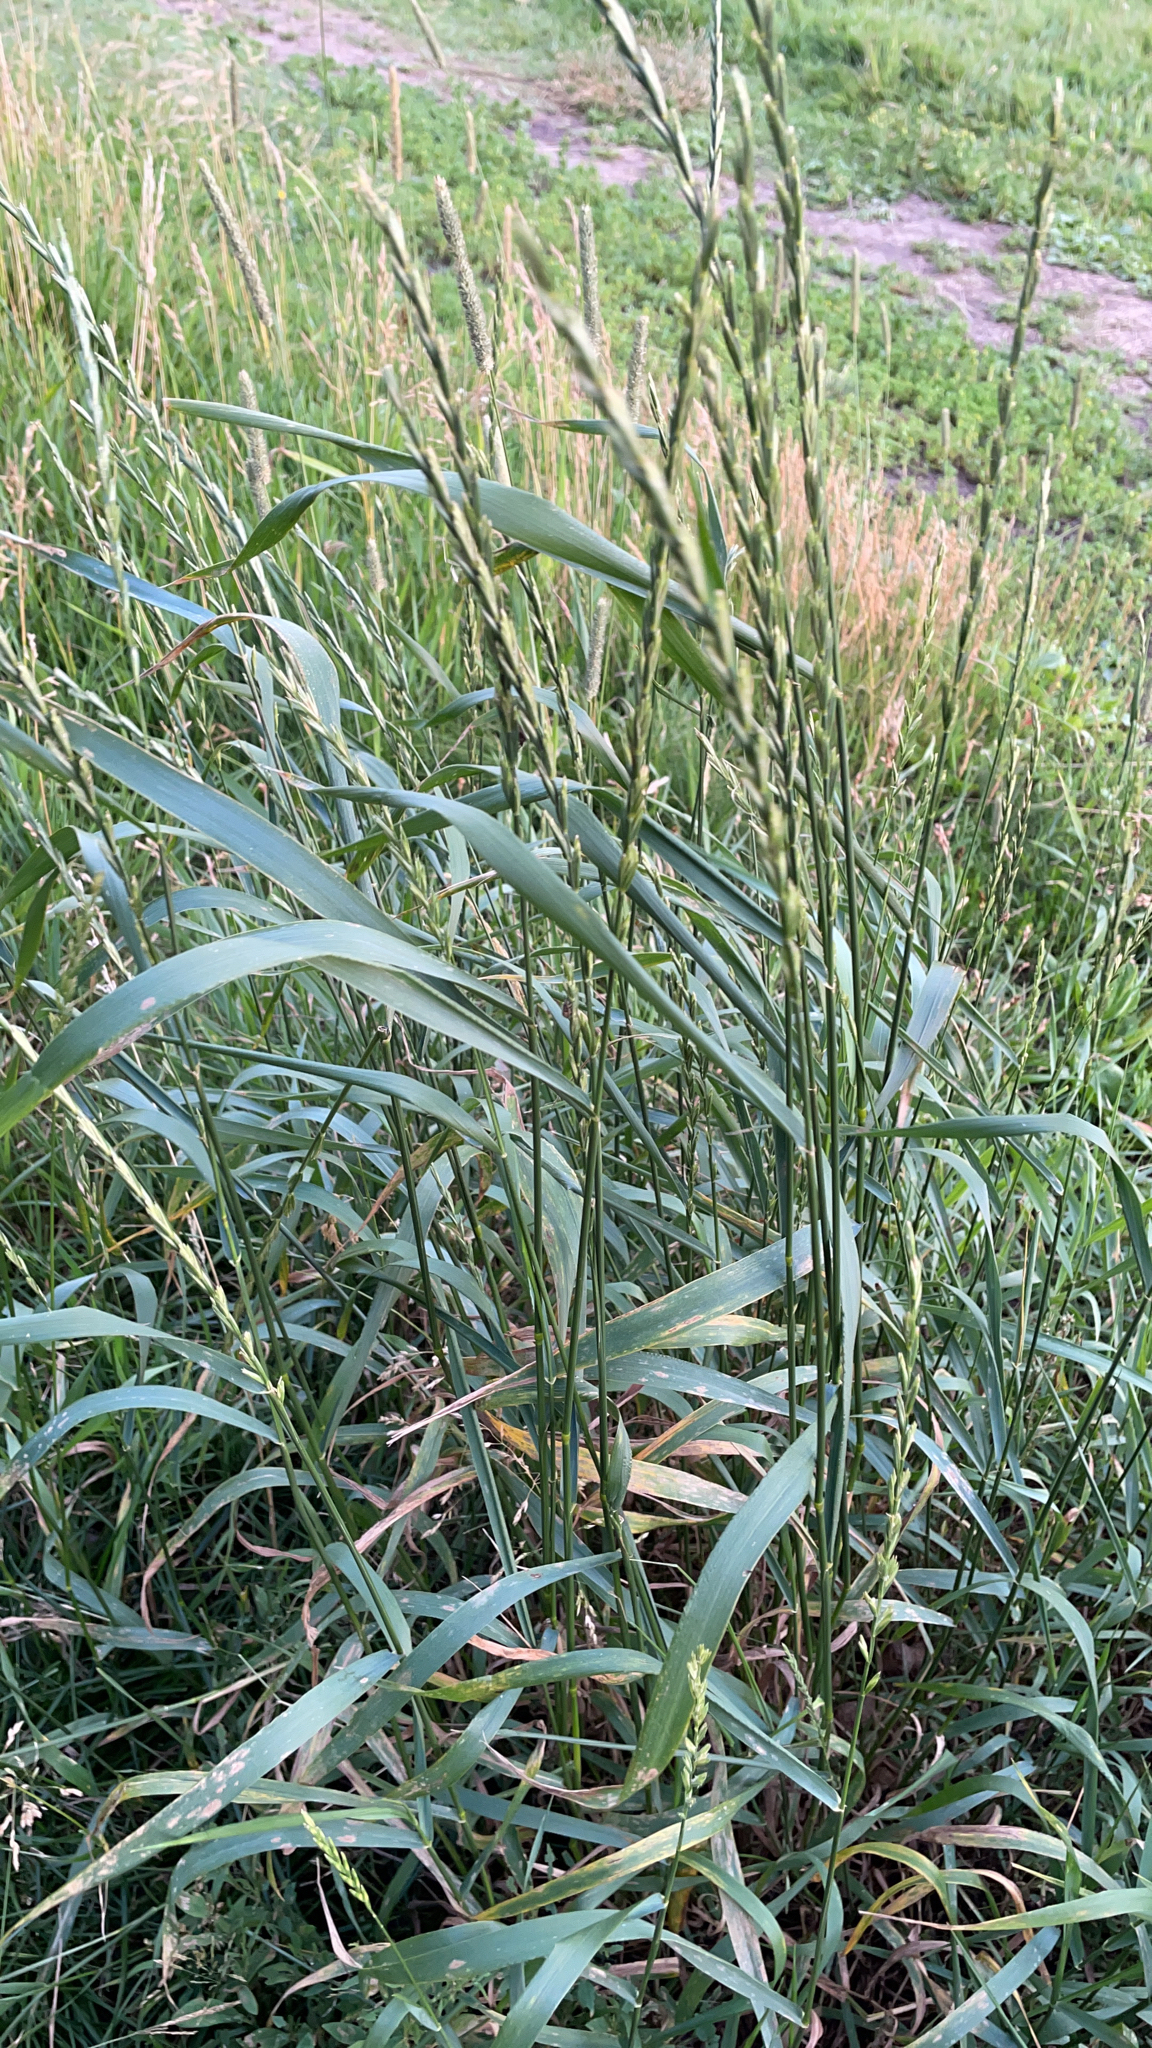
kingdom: Plantae
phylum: Tracheophyta
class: Liliopsida
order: Poales
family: Poaceae
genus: Elymus
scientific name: Elymus repens
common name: Quackgrass
